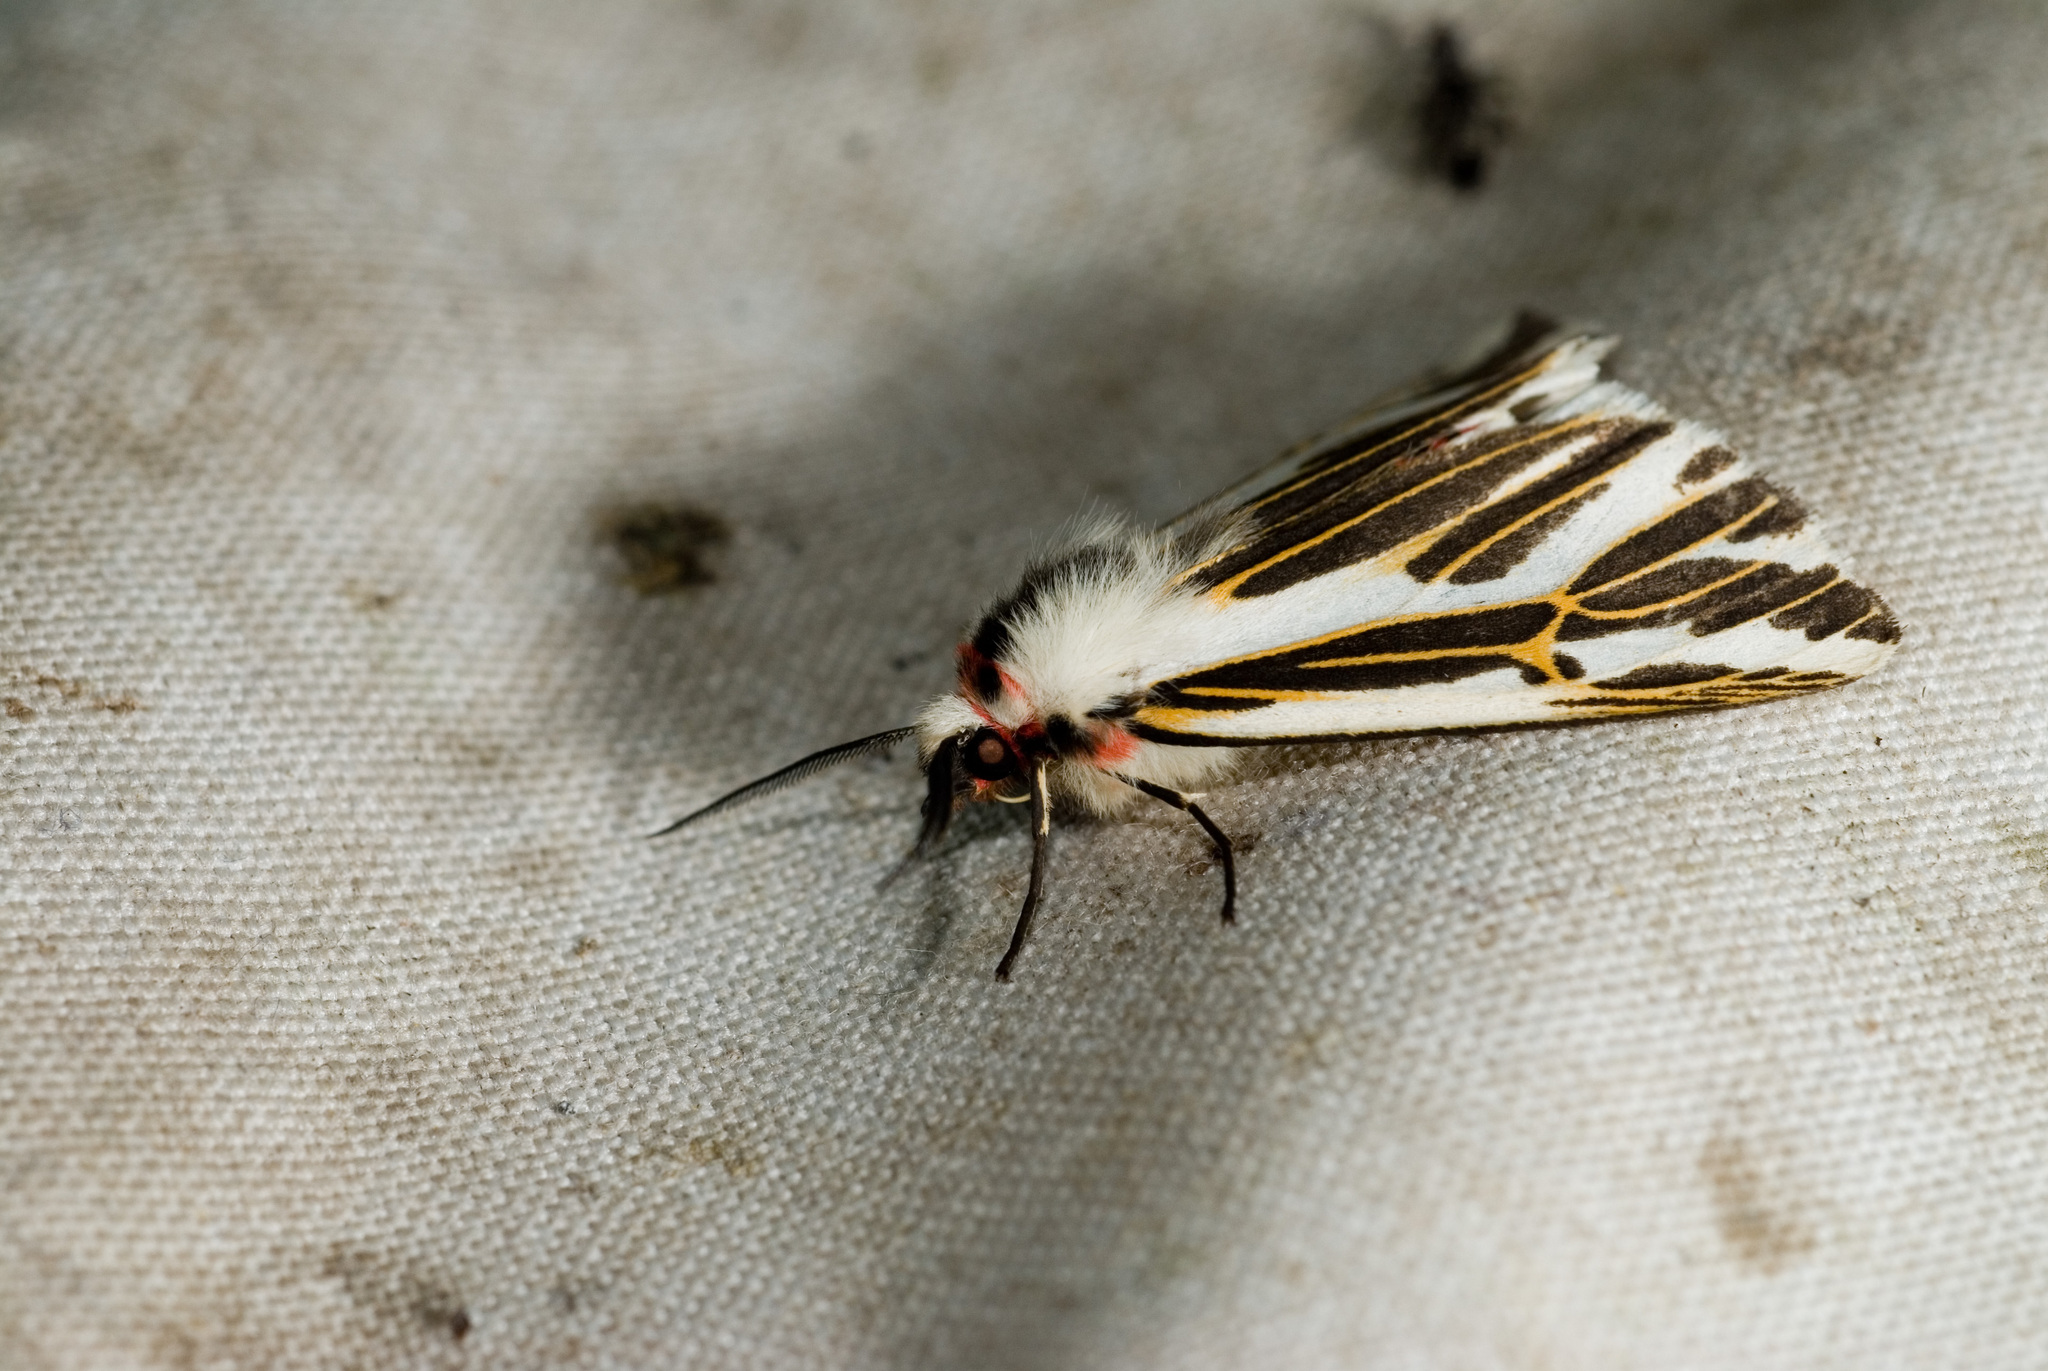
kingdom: Animalia
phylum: Arthropoda
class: Insecta
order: Lepidoptera
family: Erebidae
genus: Eospilarctia
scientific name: Eospilarctia formosana
